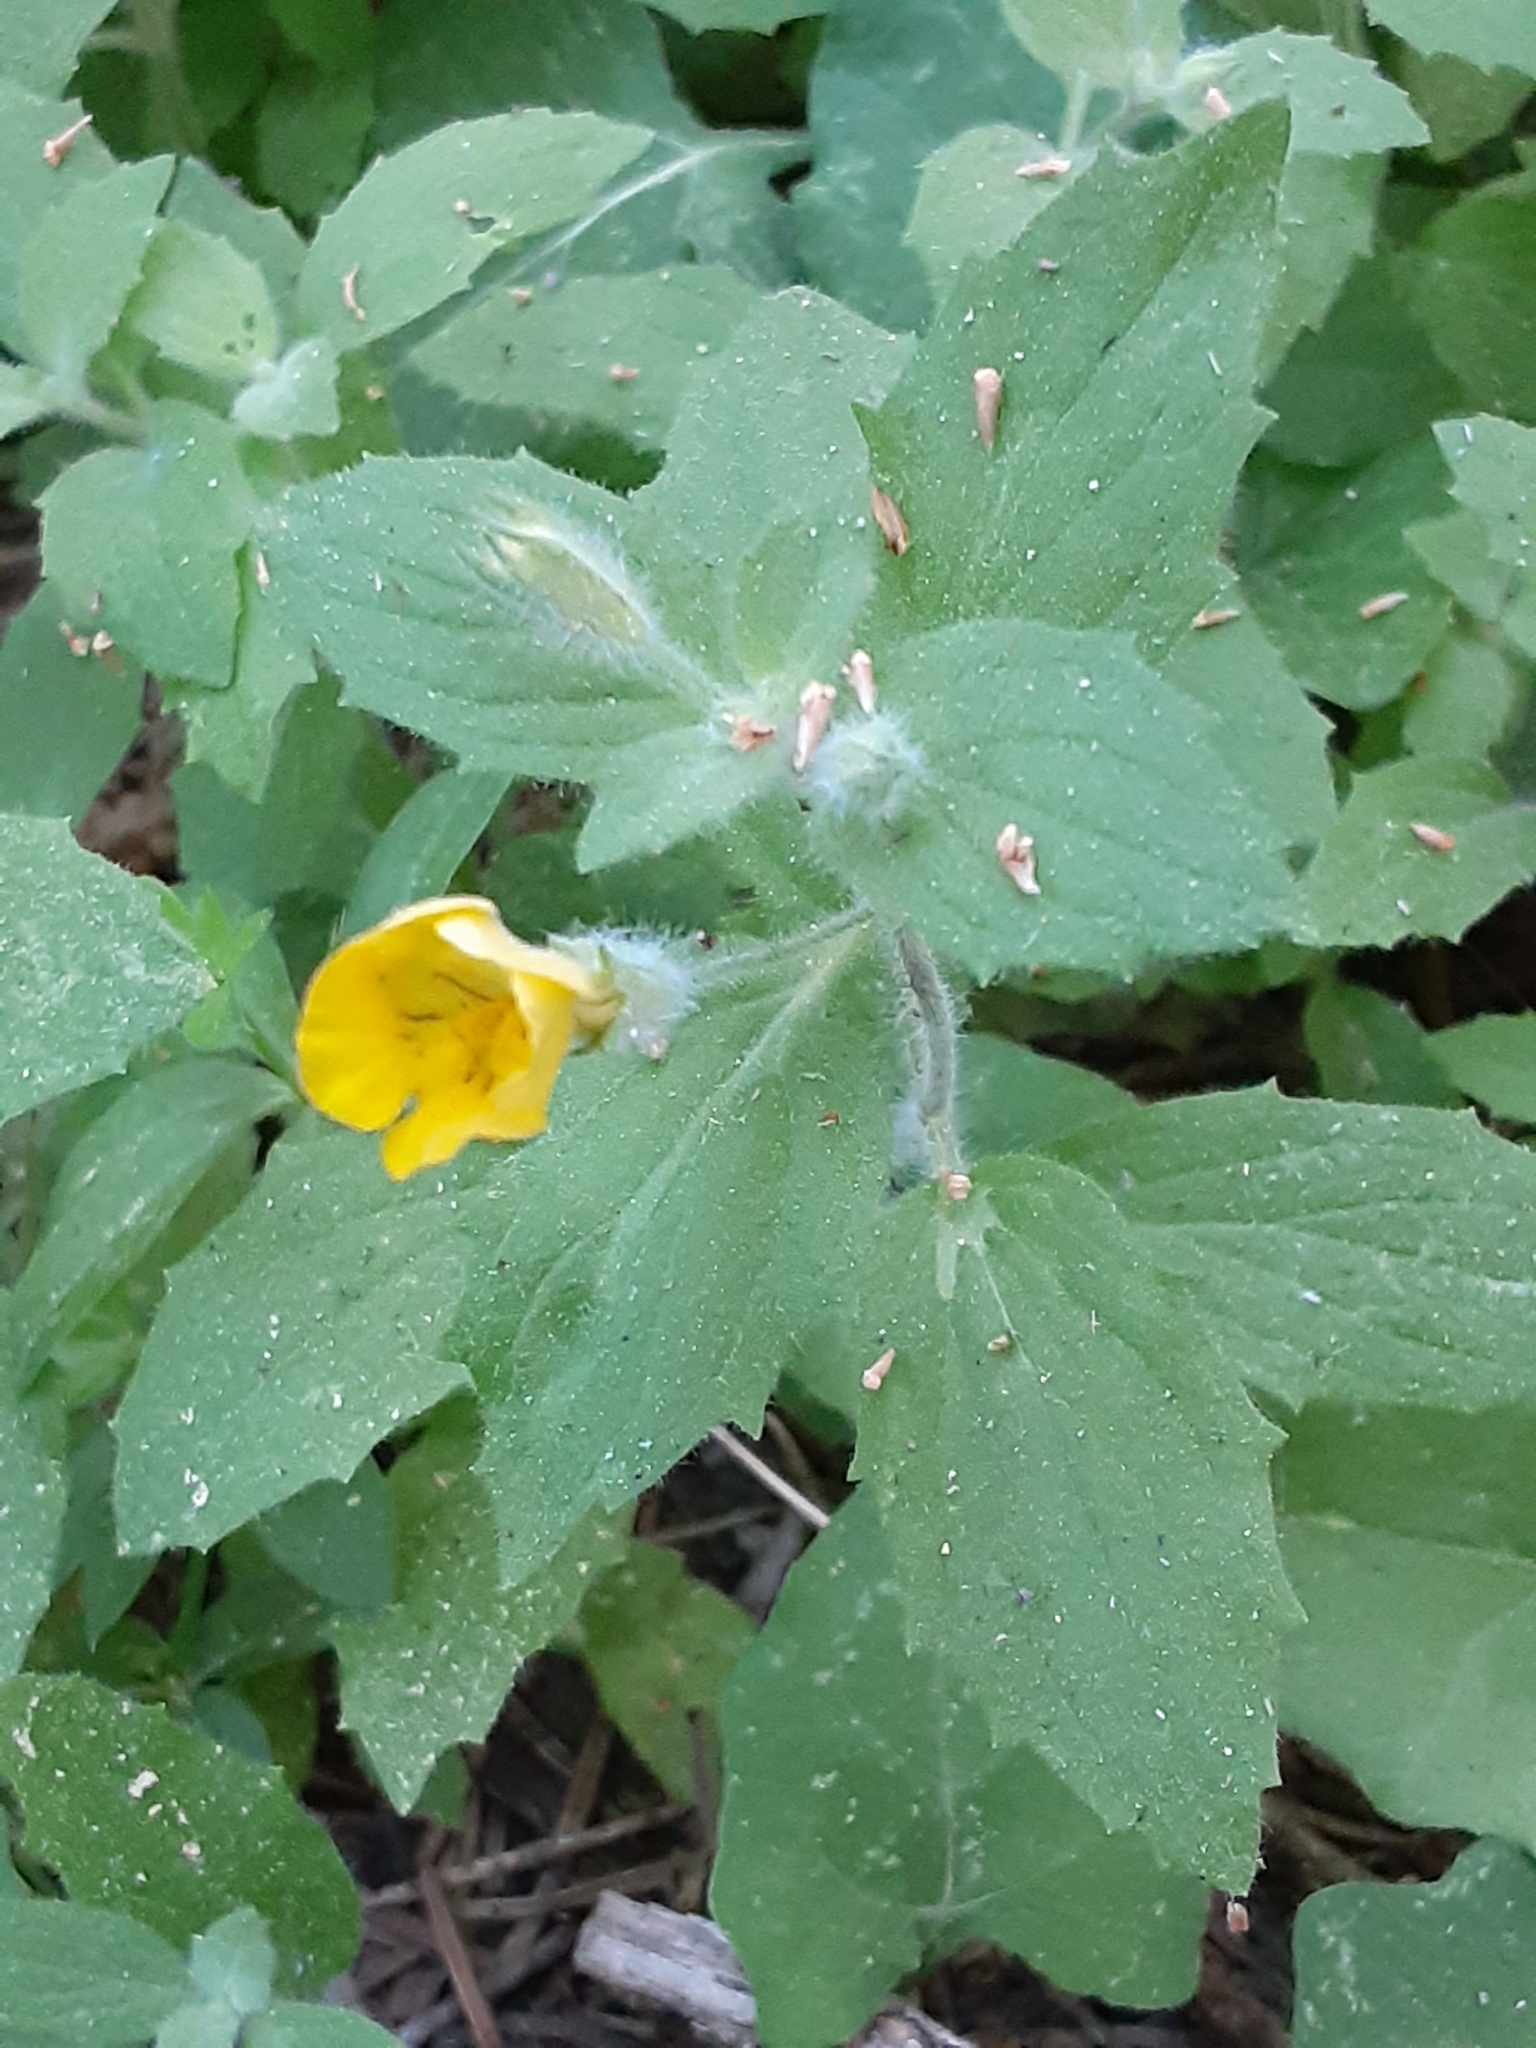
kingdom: Plantae
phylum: Tracheophyta
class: Magnoliopsida
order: Lamiales
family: Phrymaceae
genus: Erythranthe
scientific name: Erythranthe moschata
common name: Muskflower
